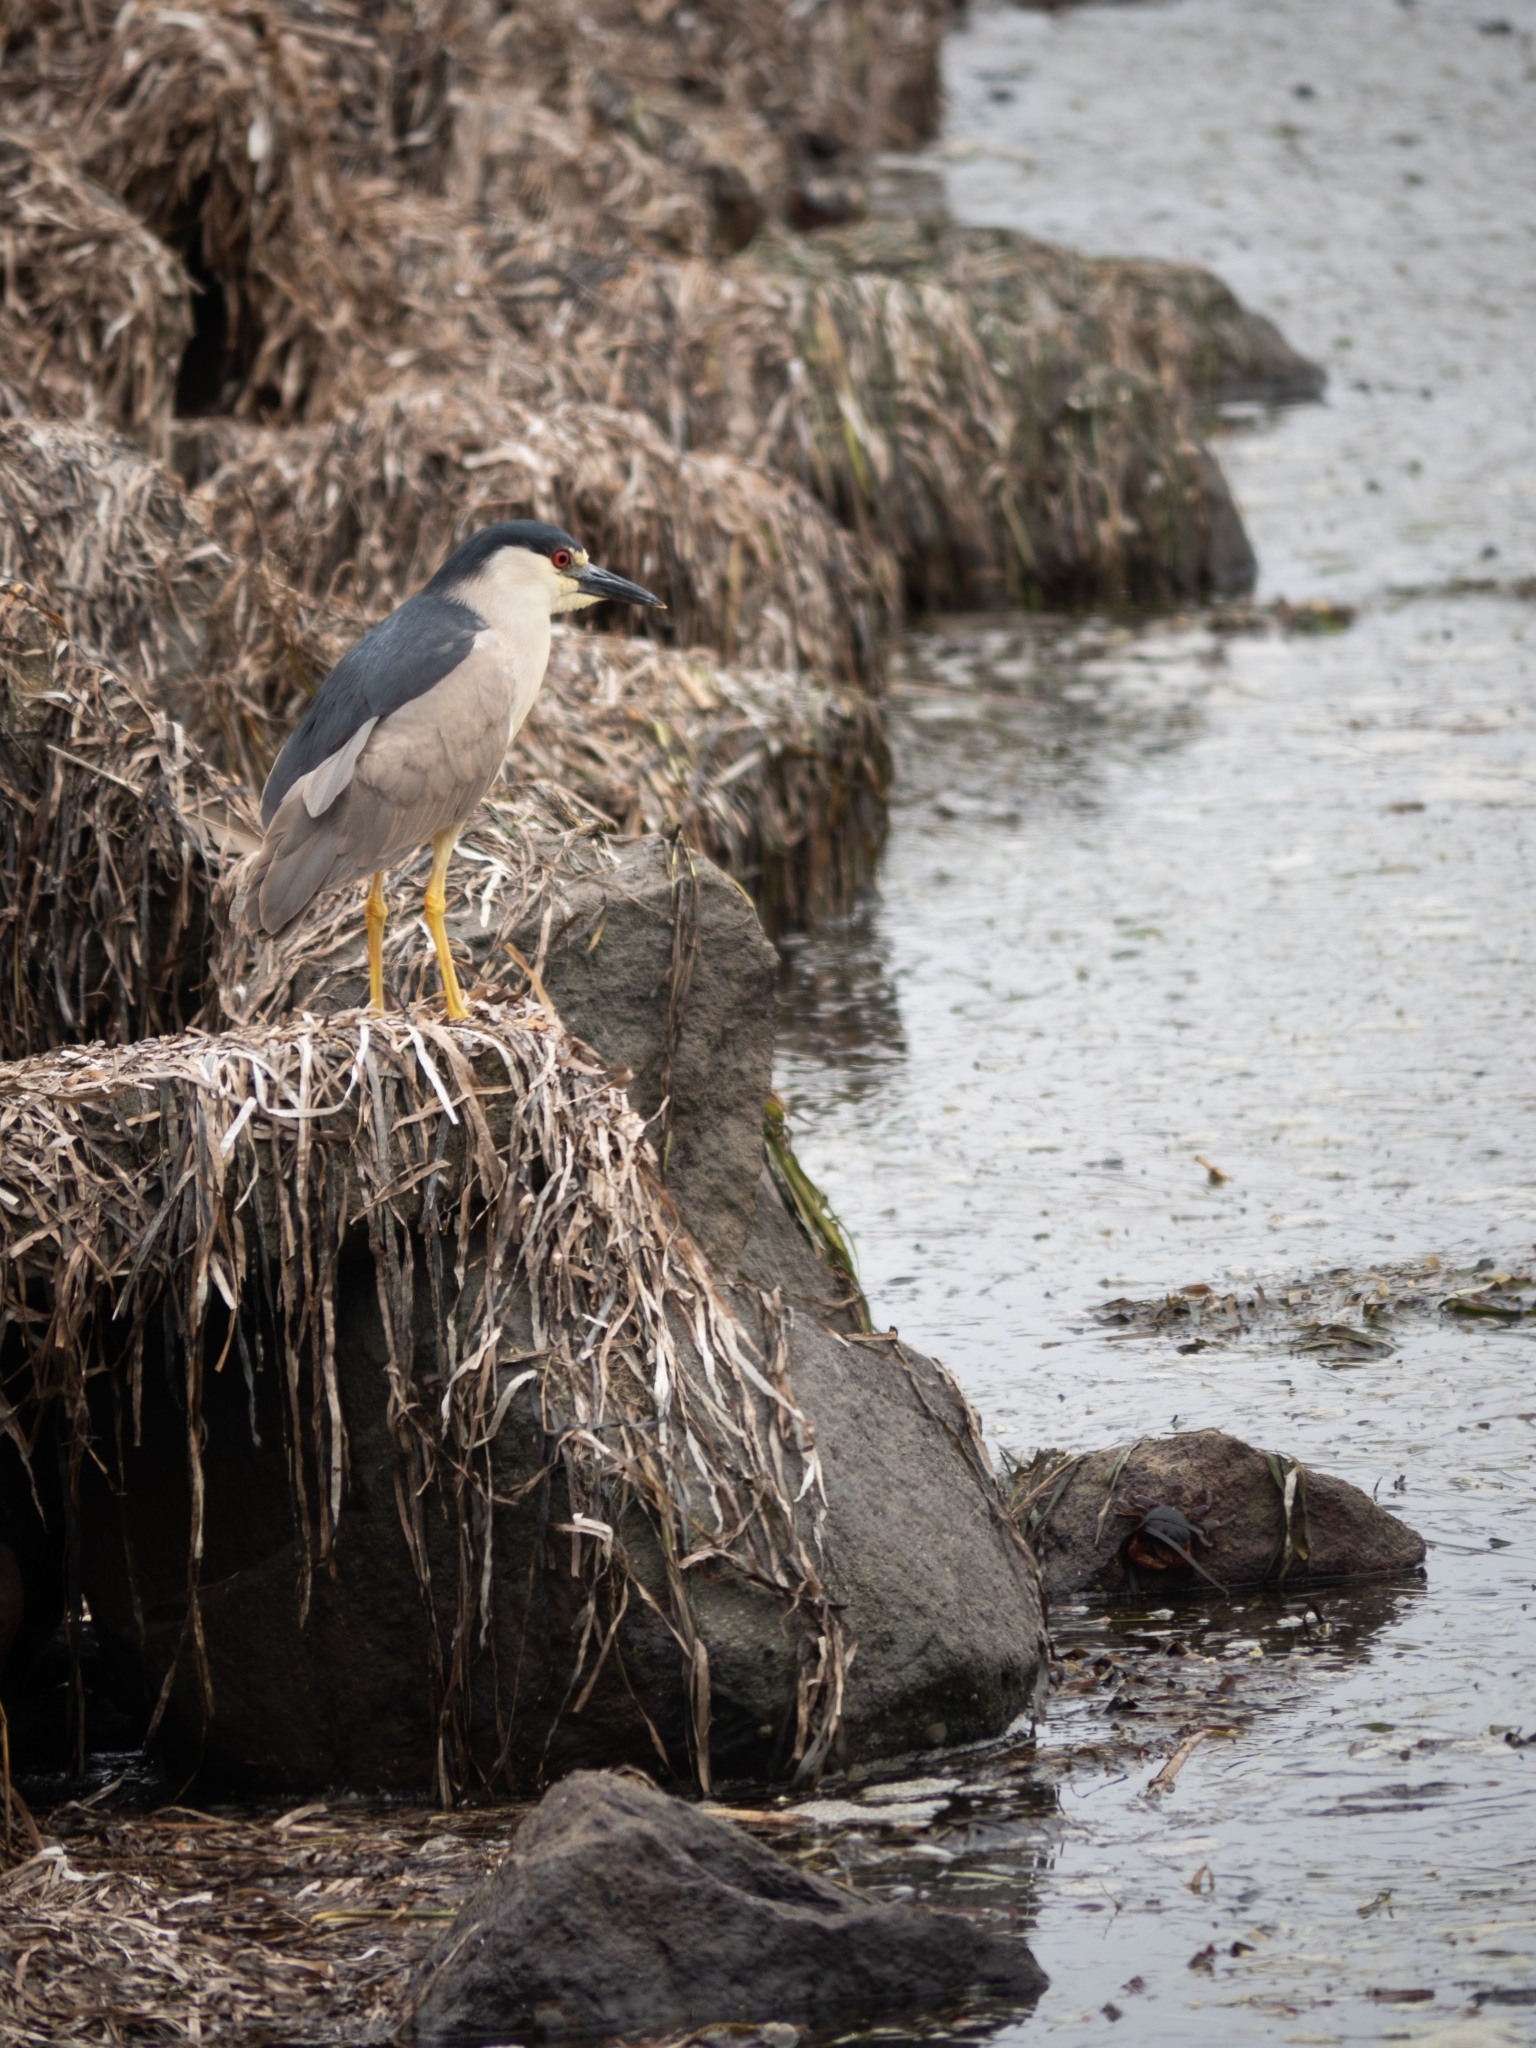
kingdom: Animalia
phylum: Chordata
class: Aves
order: Pelecaniformes
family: Ardeidae
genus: Nycticorax
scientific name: Nycticorax nycticorax
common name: Black-crowned night heron
